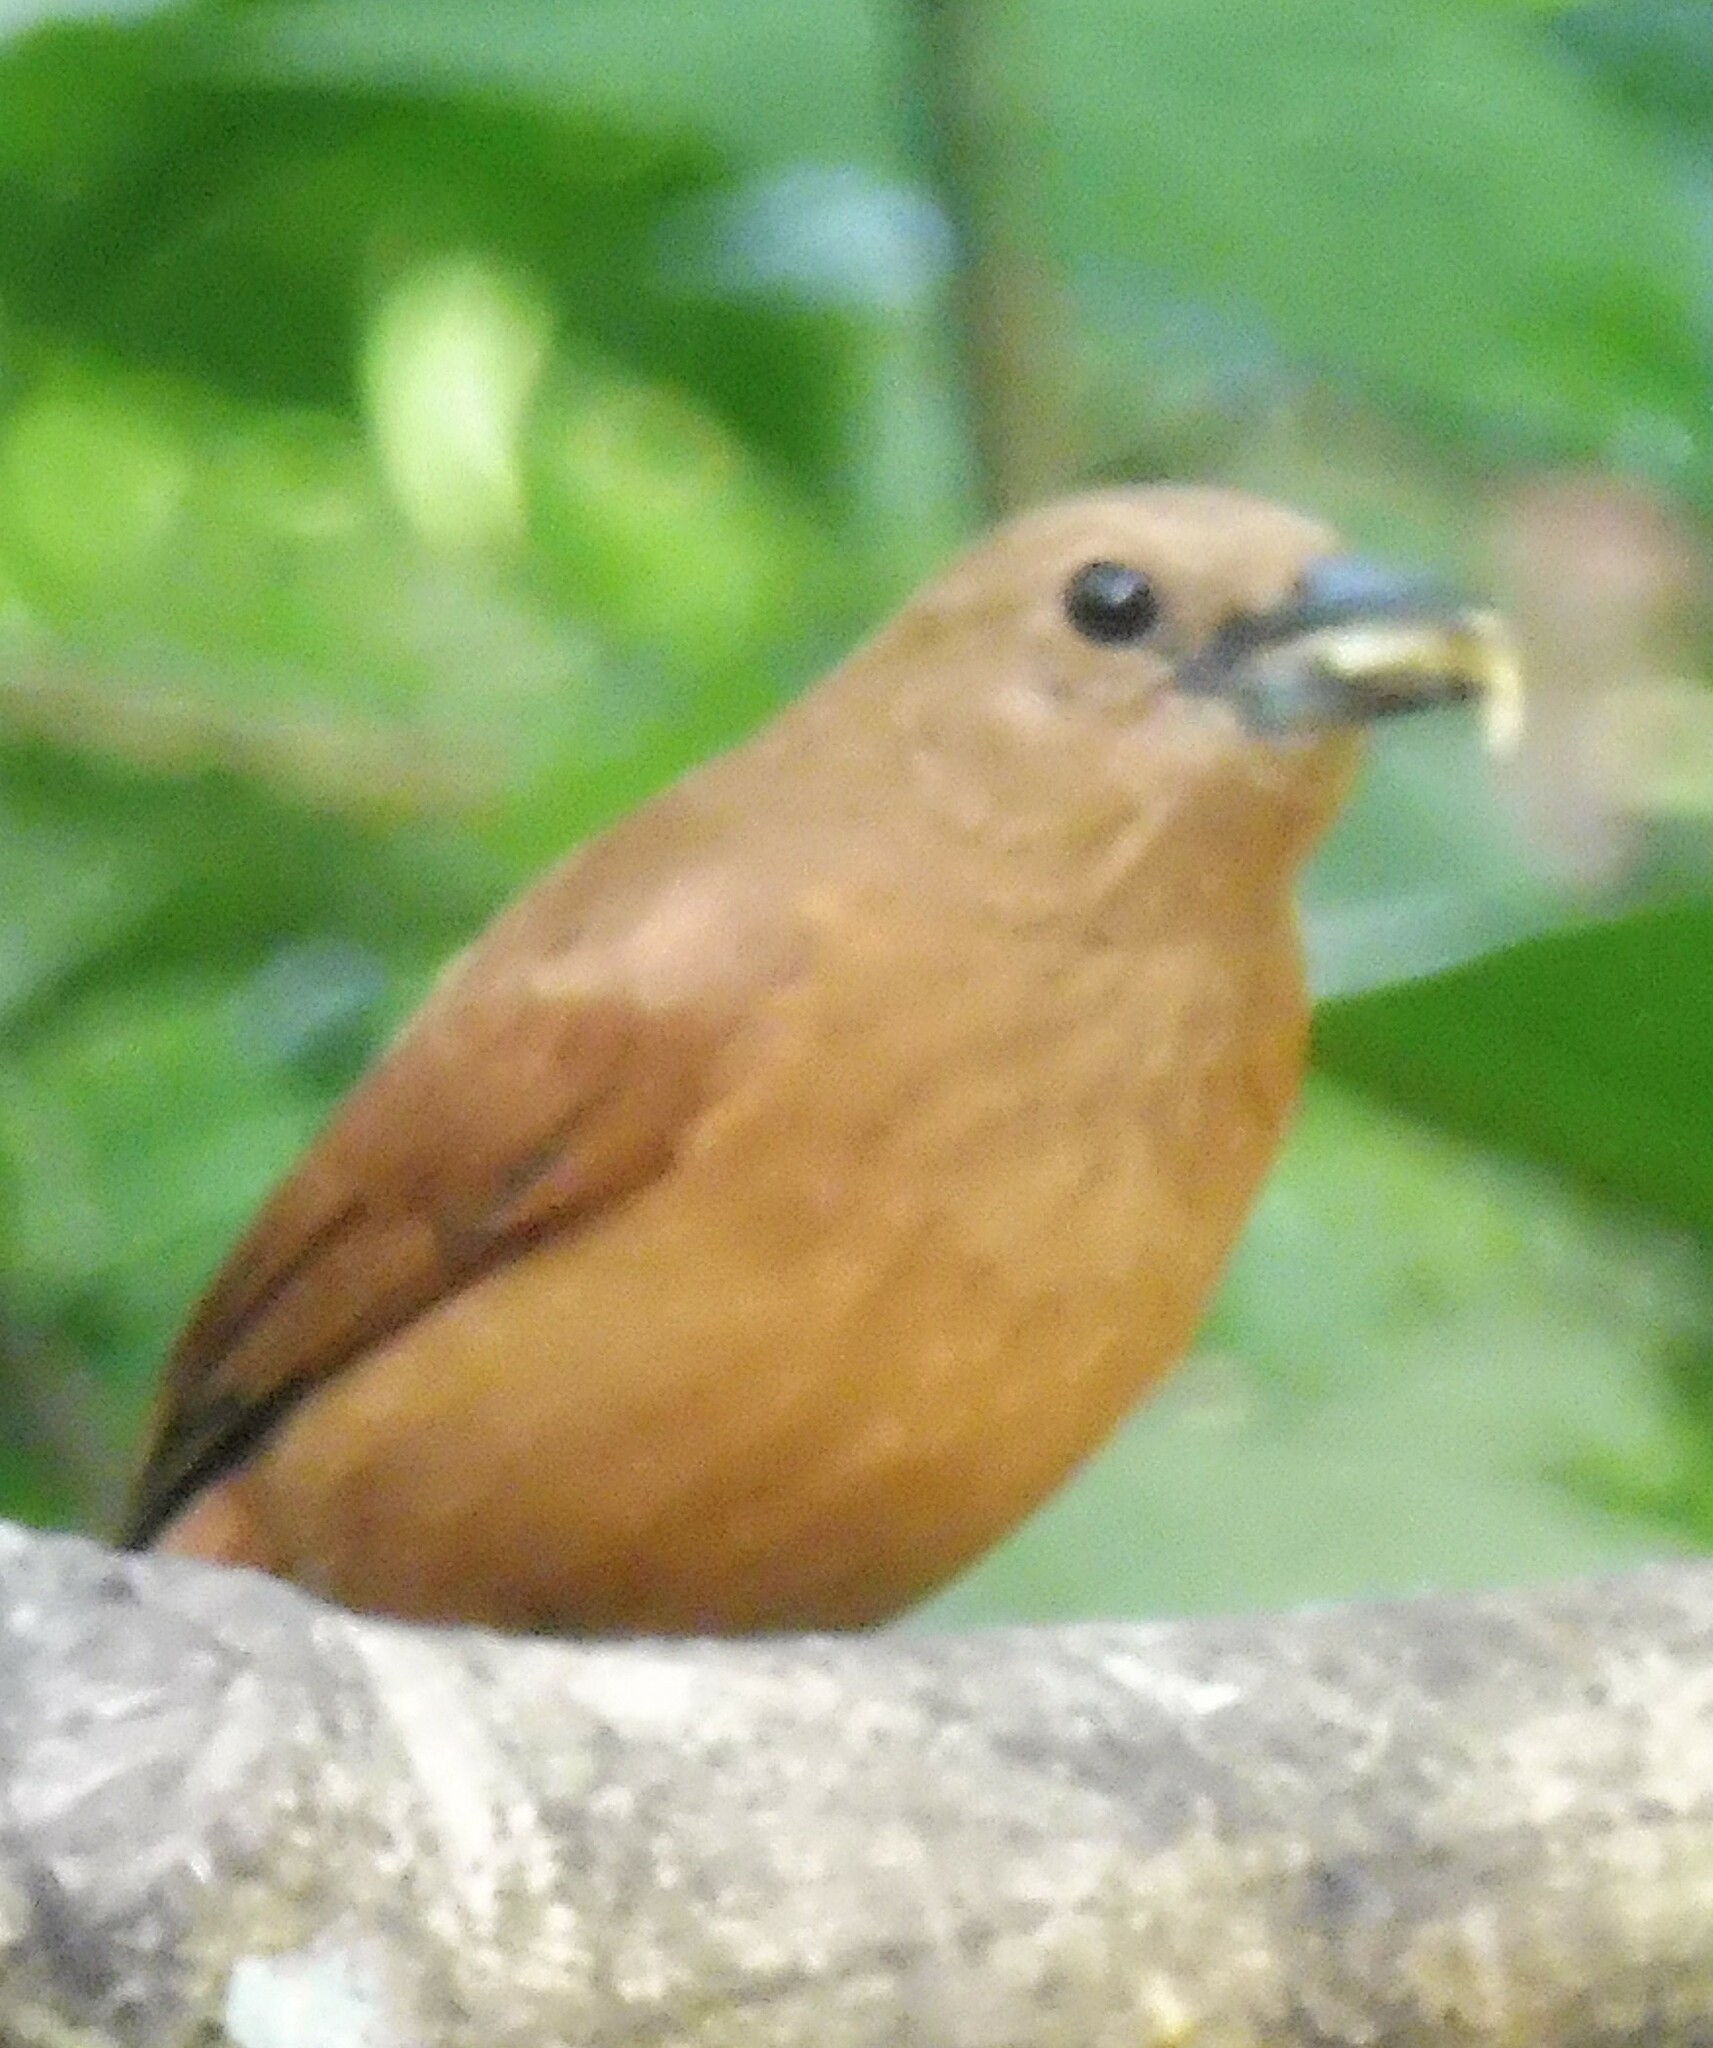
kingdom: Animalia
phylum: Chordata
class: Aves
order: Passeriformes
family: Thraupidae
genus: Tachyphonus
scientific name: Tachyphonus rufus
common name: White-lined tanager
